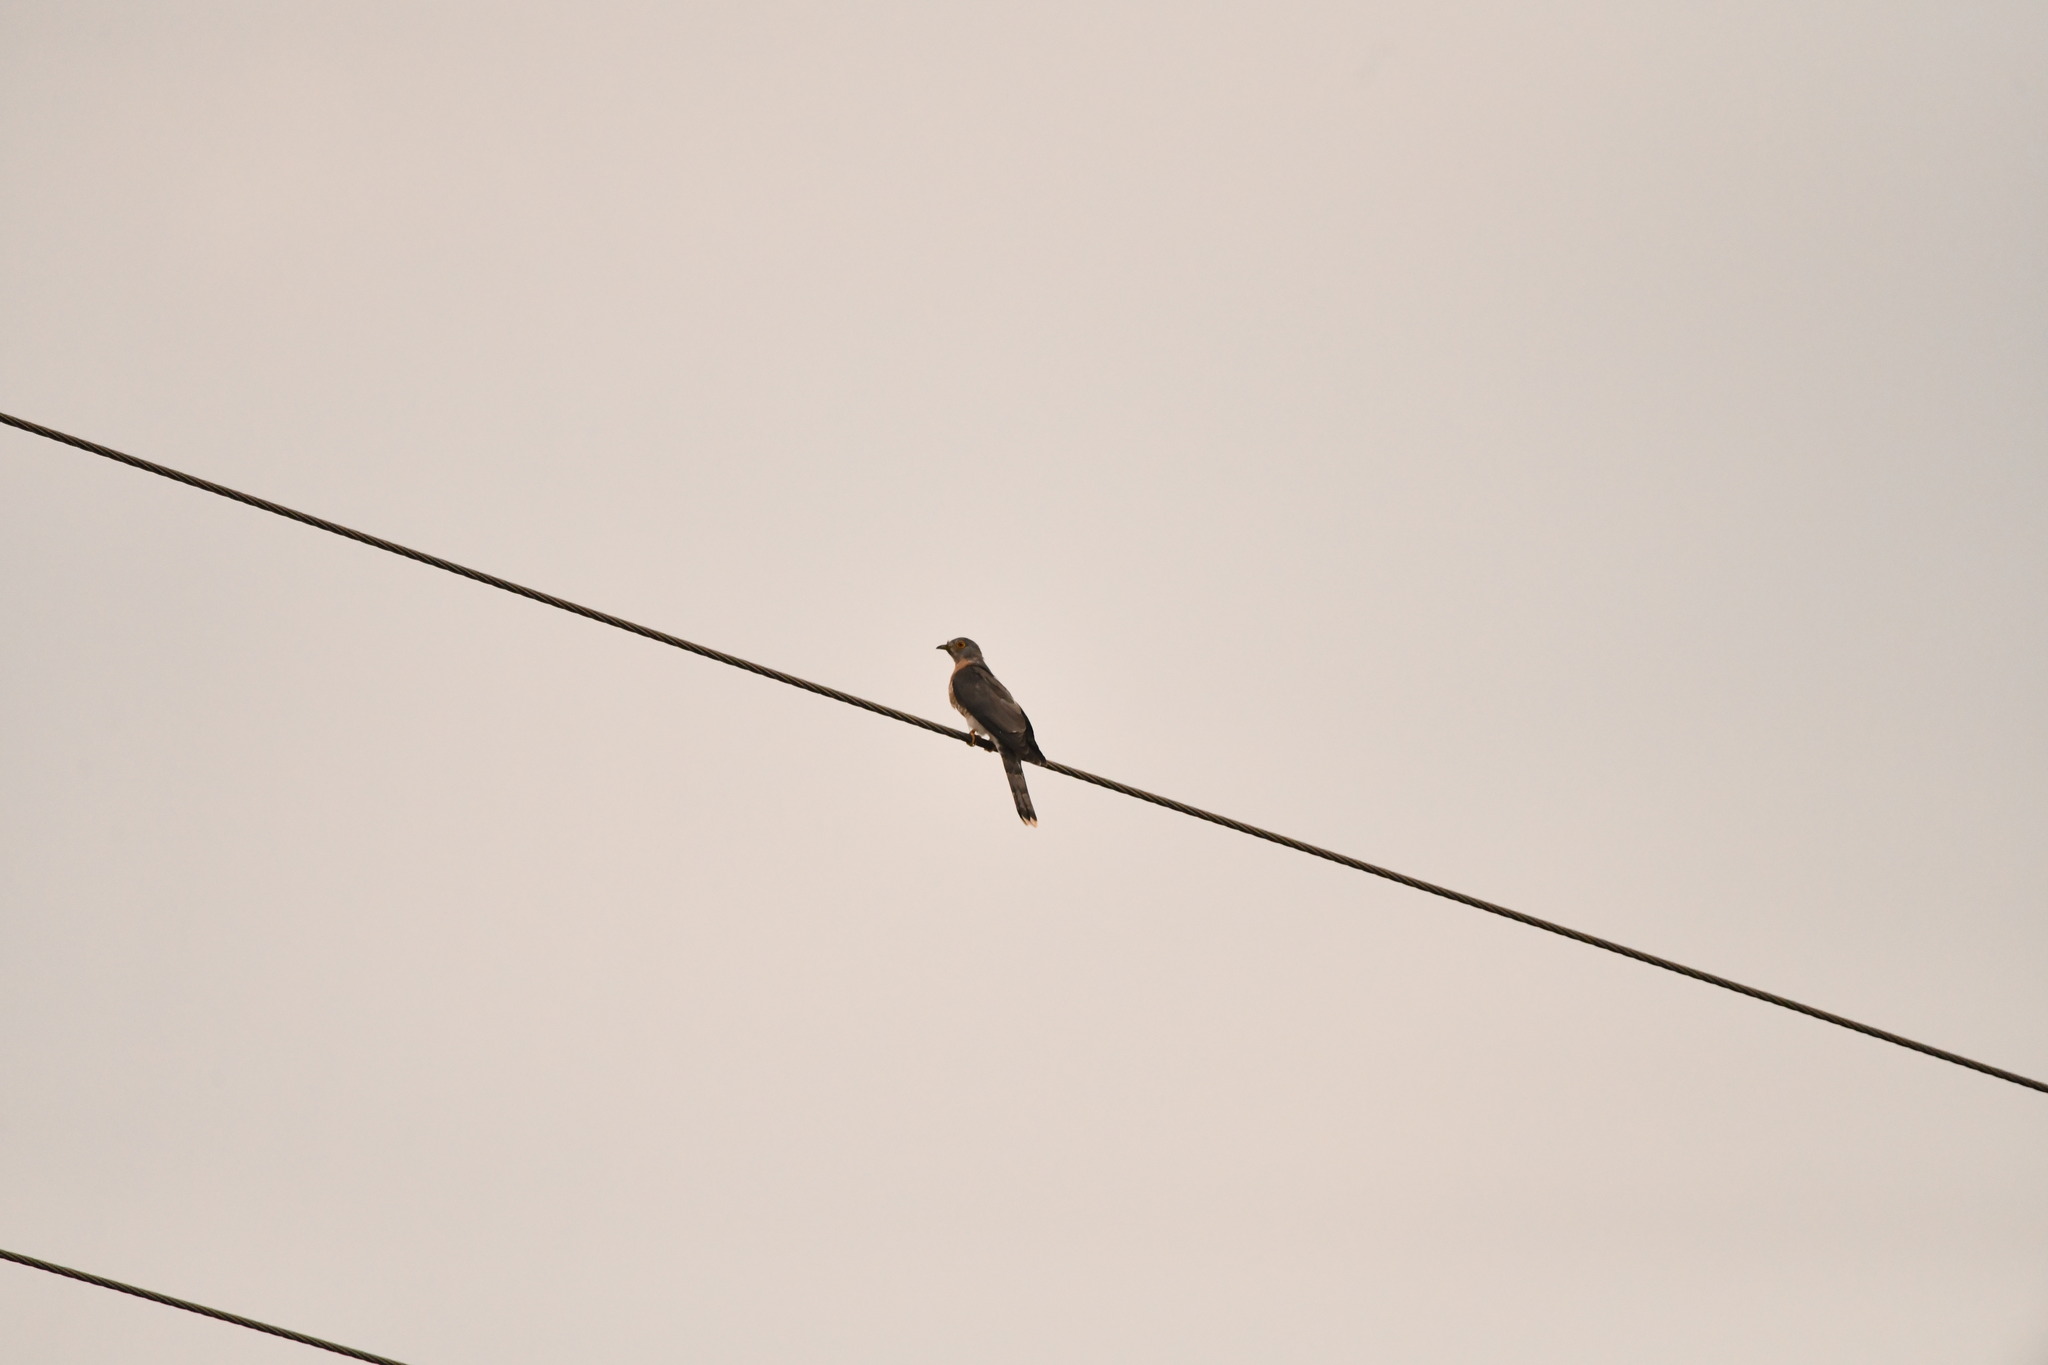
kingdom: Animalia
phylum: Chordata
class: Aves
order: Cuculiformes
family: Cuculidae
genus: Cuculus
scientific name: Cuculus varius
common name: Common hawk cuckoo
